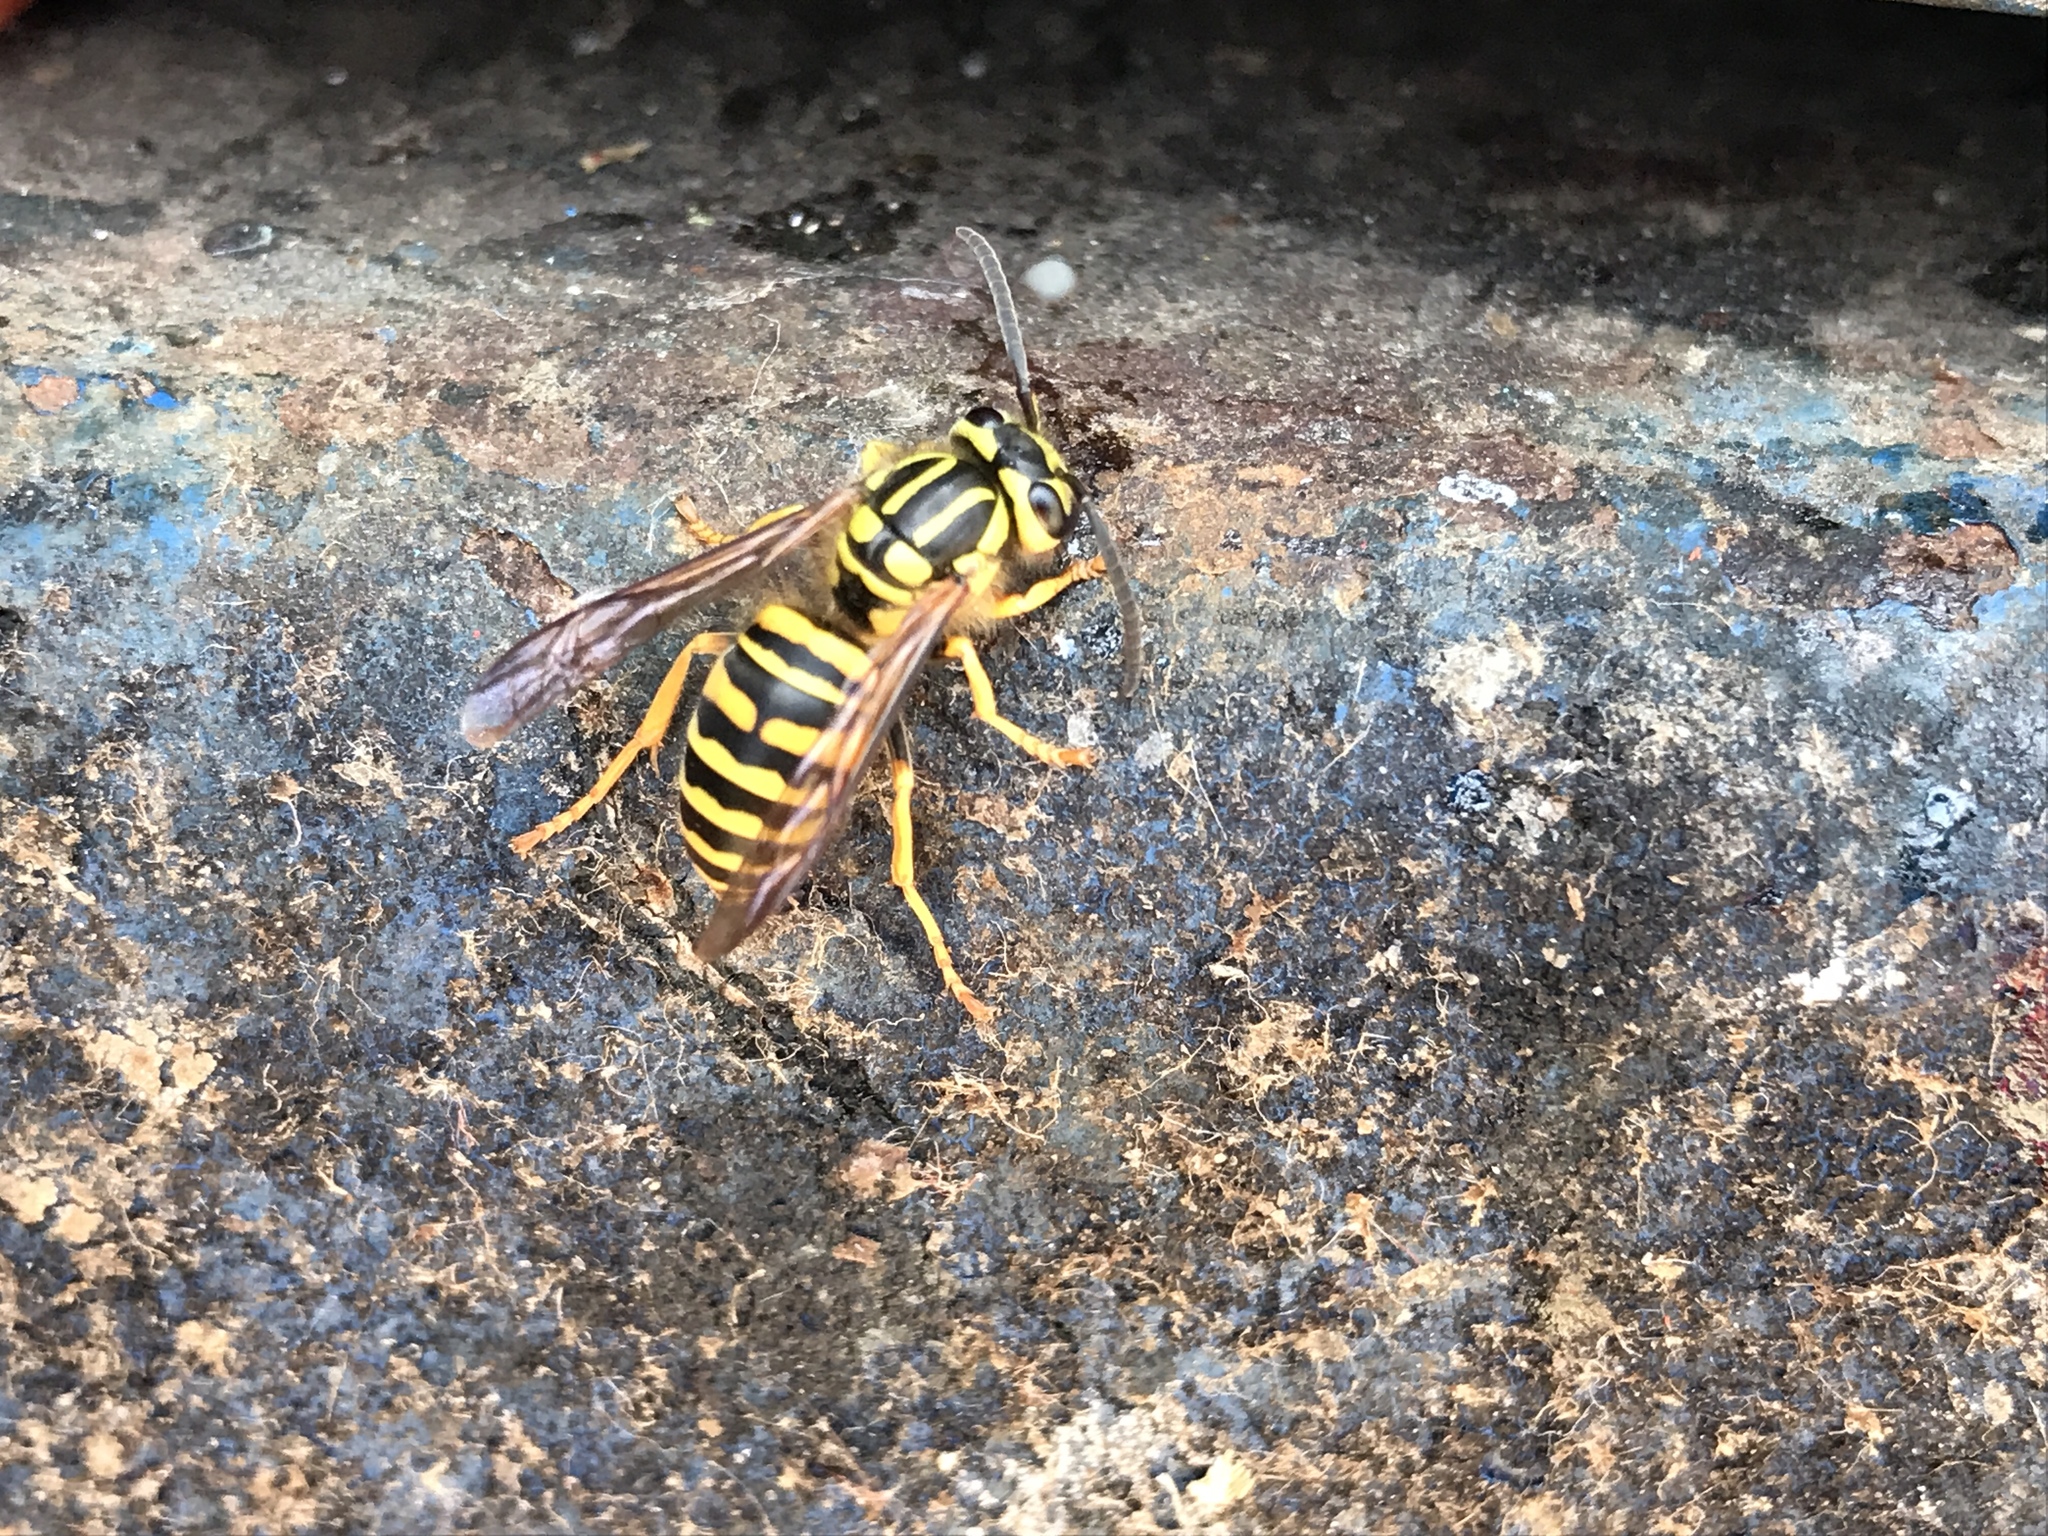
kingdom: Animalia
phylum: Arthropoda
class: Insecta
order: Hymenoptera
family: Vespidae
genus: Vespula
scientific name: Vespula squamosa
